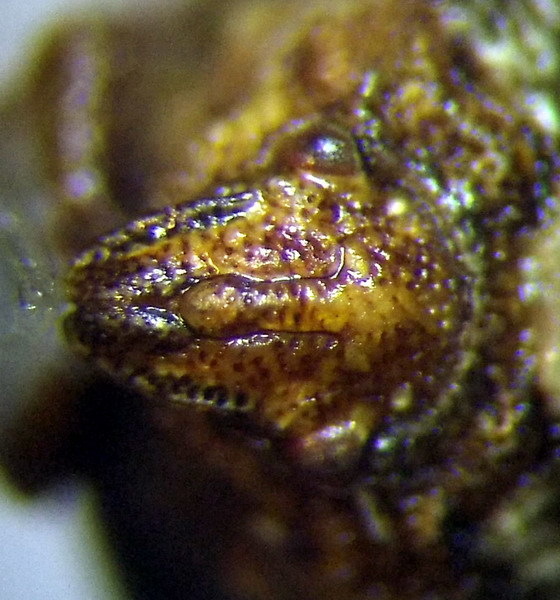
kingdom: Animalia
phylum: Arthropoda
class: Insecta
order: Hemiptera
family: Pentatomidae
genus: Vilpianus
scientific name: Vilpianus galii
